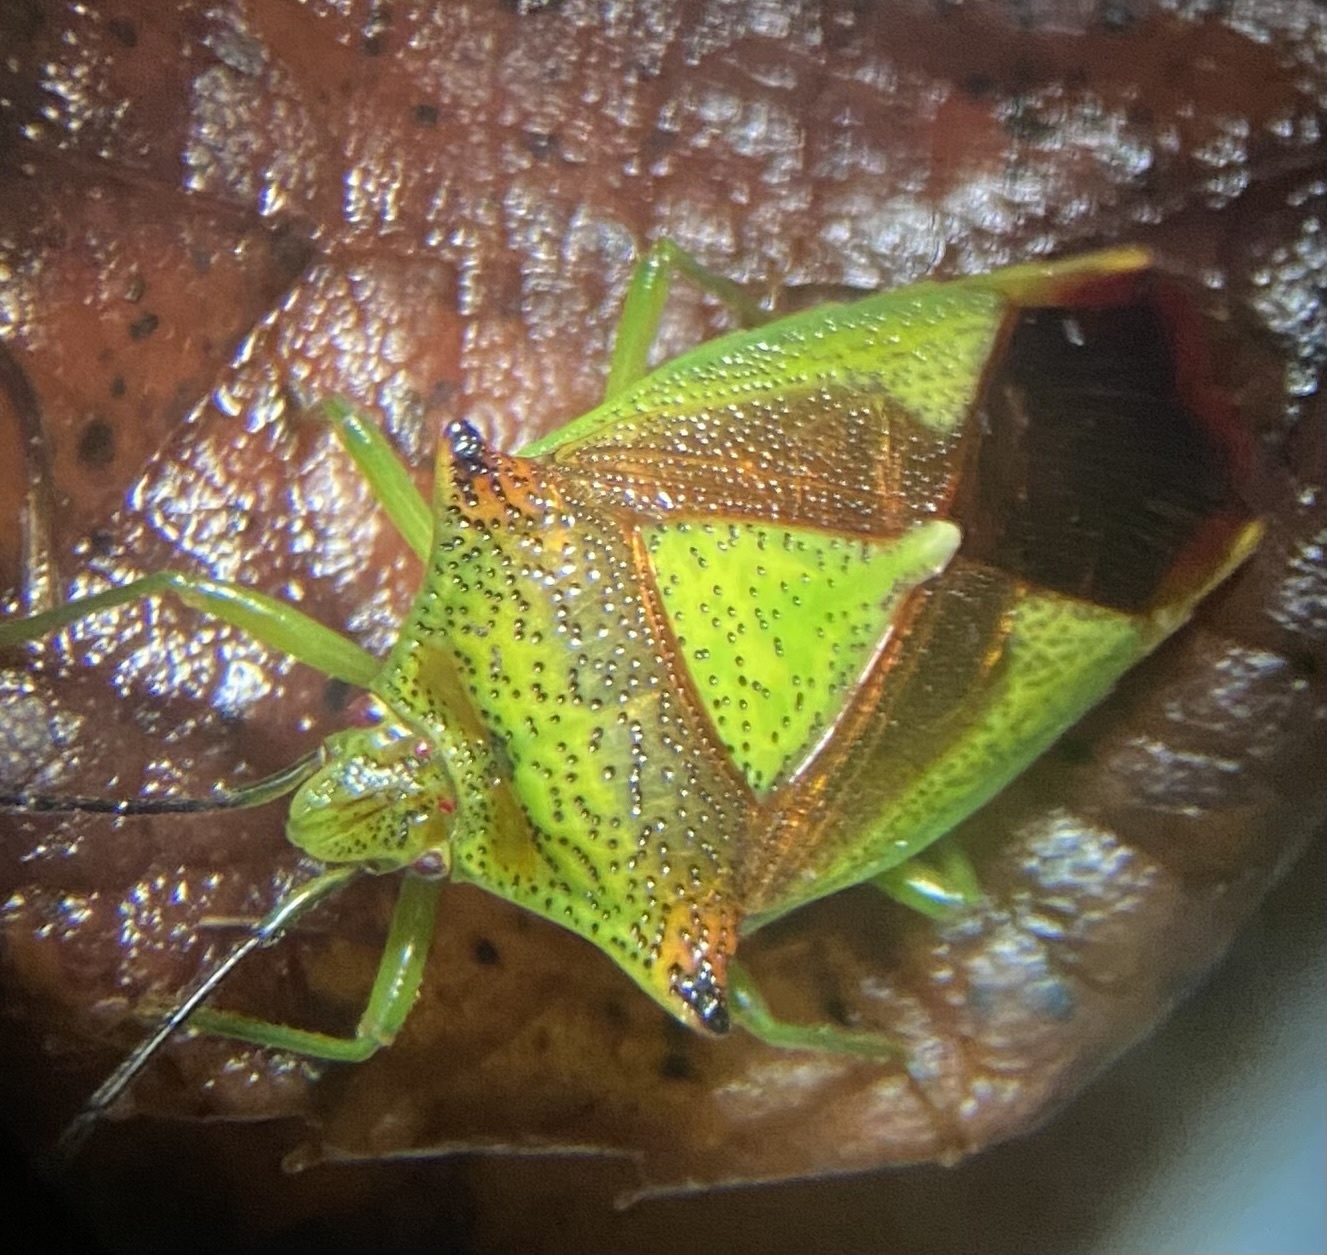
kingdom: Animalia
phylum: Arthropoda
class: Insecta
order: Hemiptera
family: Acanthosomatidae
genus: Acanthosoma
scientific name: Acanthosoma haemorrhoidale
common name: Hawthorn shieldbug
